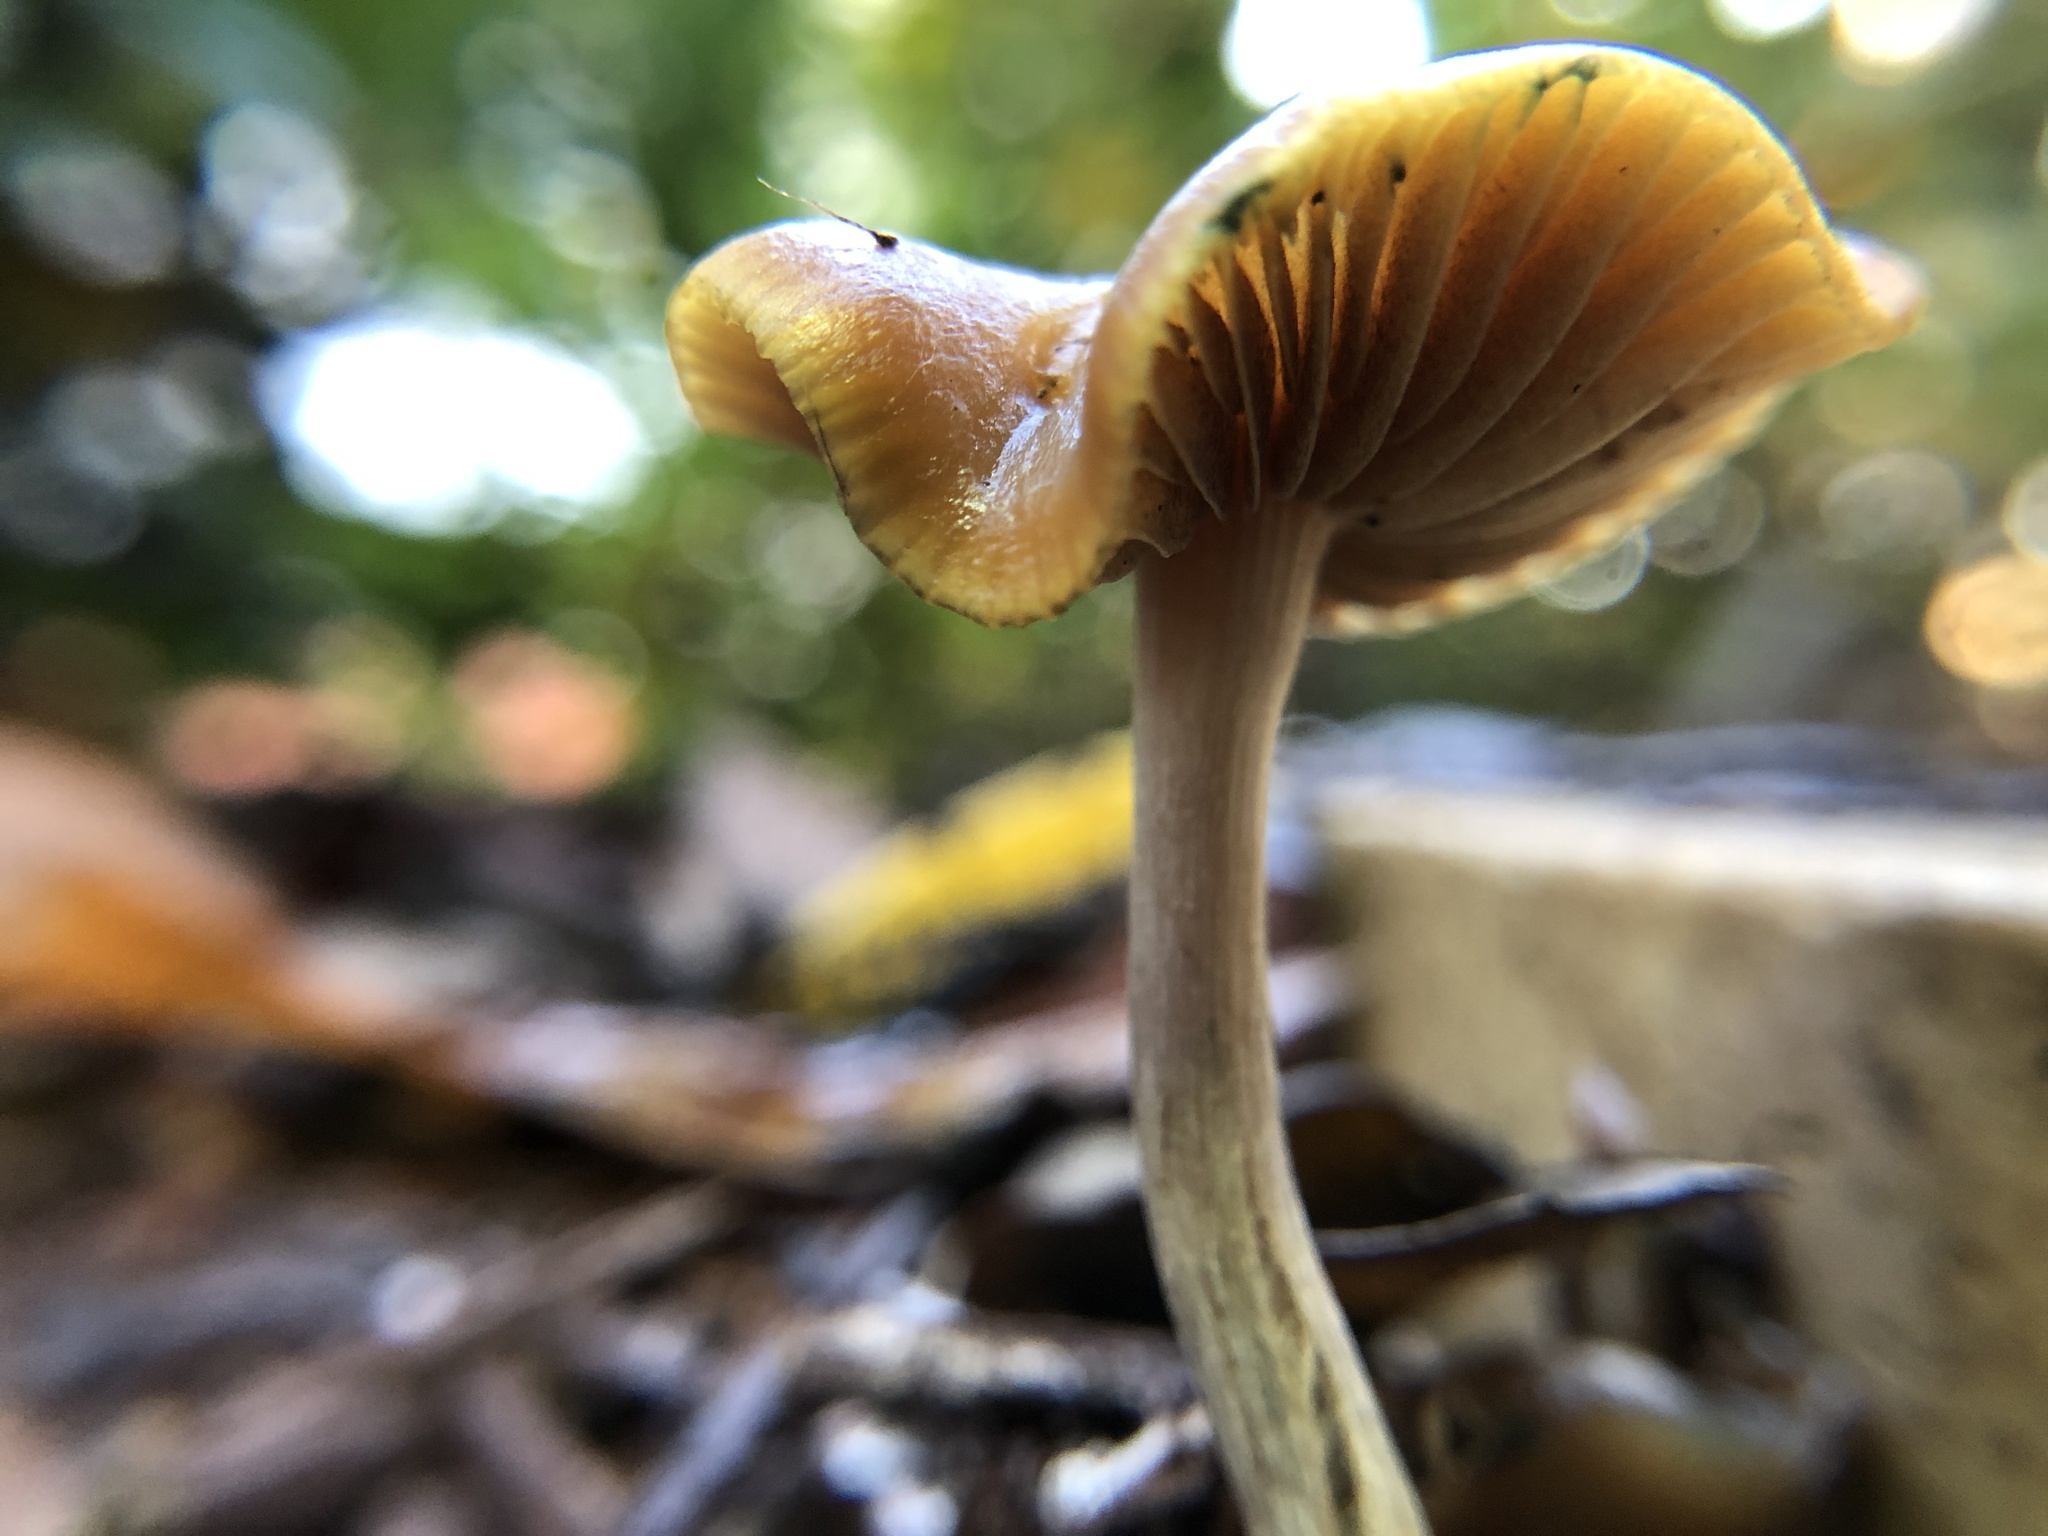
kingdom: Fungi
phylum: Basidiomycota
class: Agaricomycetes
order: Agaricales
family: Hymenogastraceae
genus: Psilocybe
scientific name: Psilocybe cyanescens
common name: Blueleg brownie
